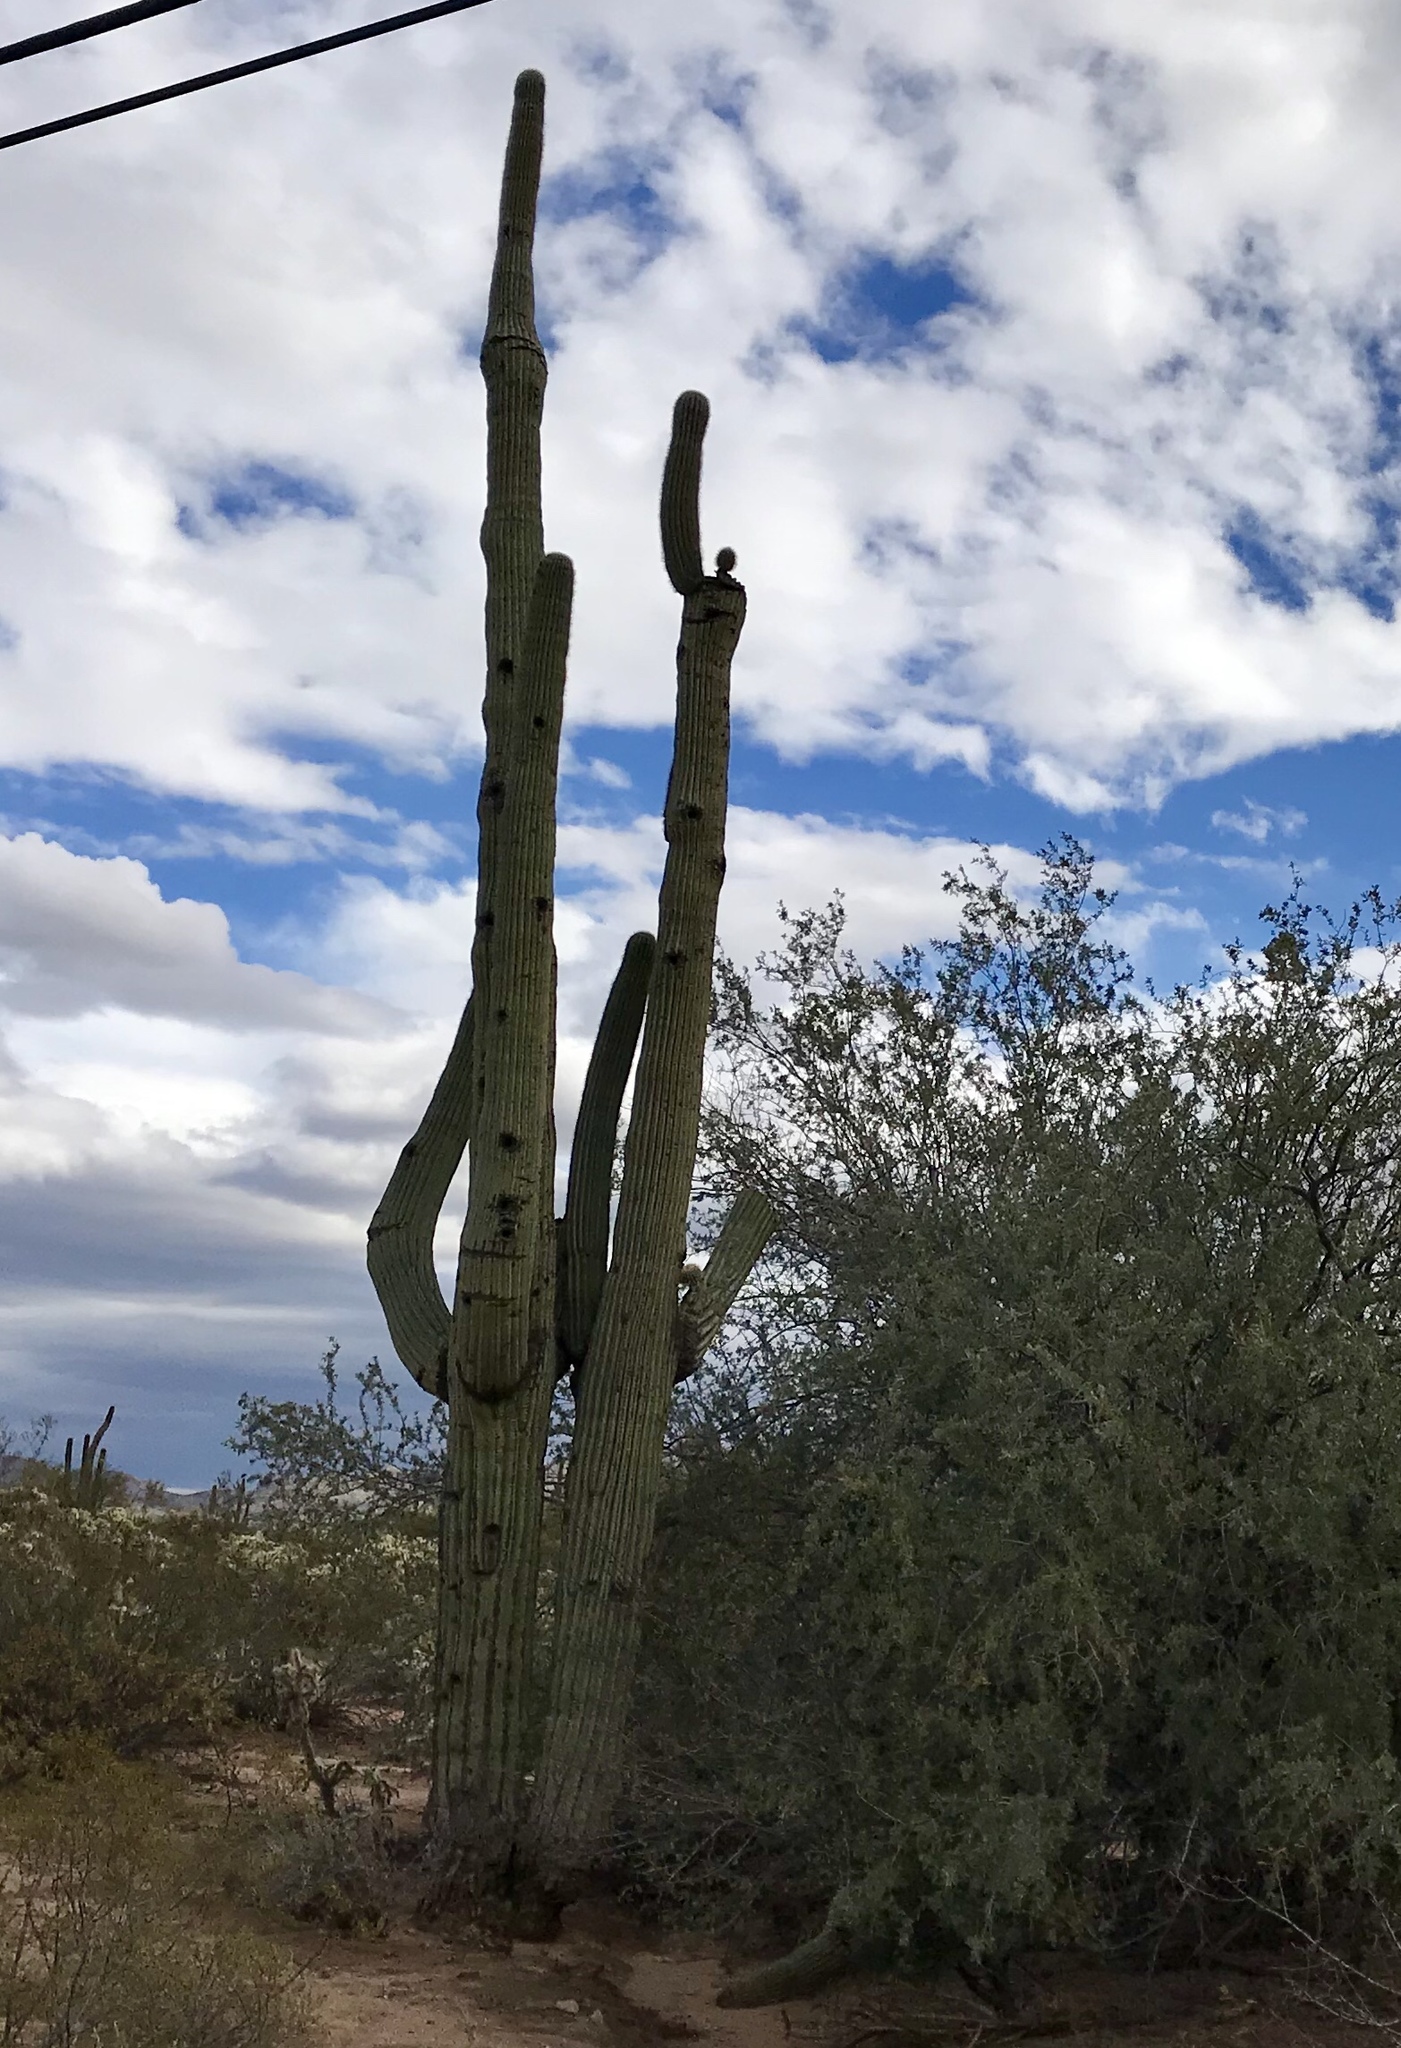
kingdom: Plantae
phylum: Tracheophyta
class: Magnoliopsida
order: Caryophyllales
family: Cactaceae
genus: Carnegiea
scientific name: Carnegiea gigantea
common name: Saguaro
